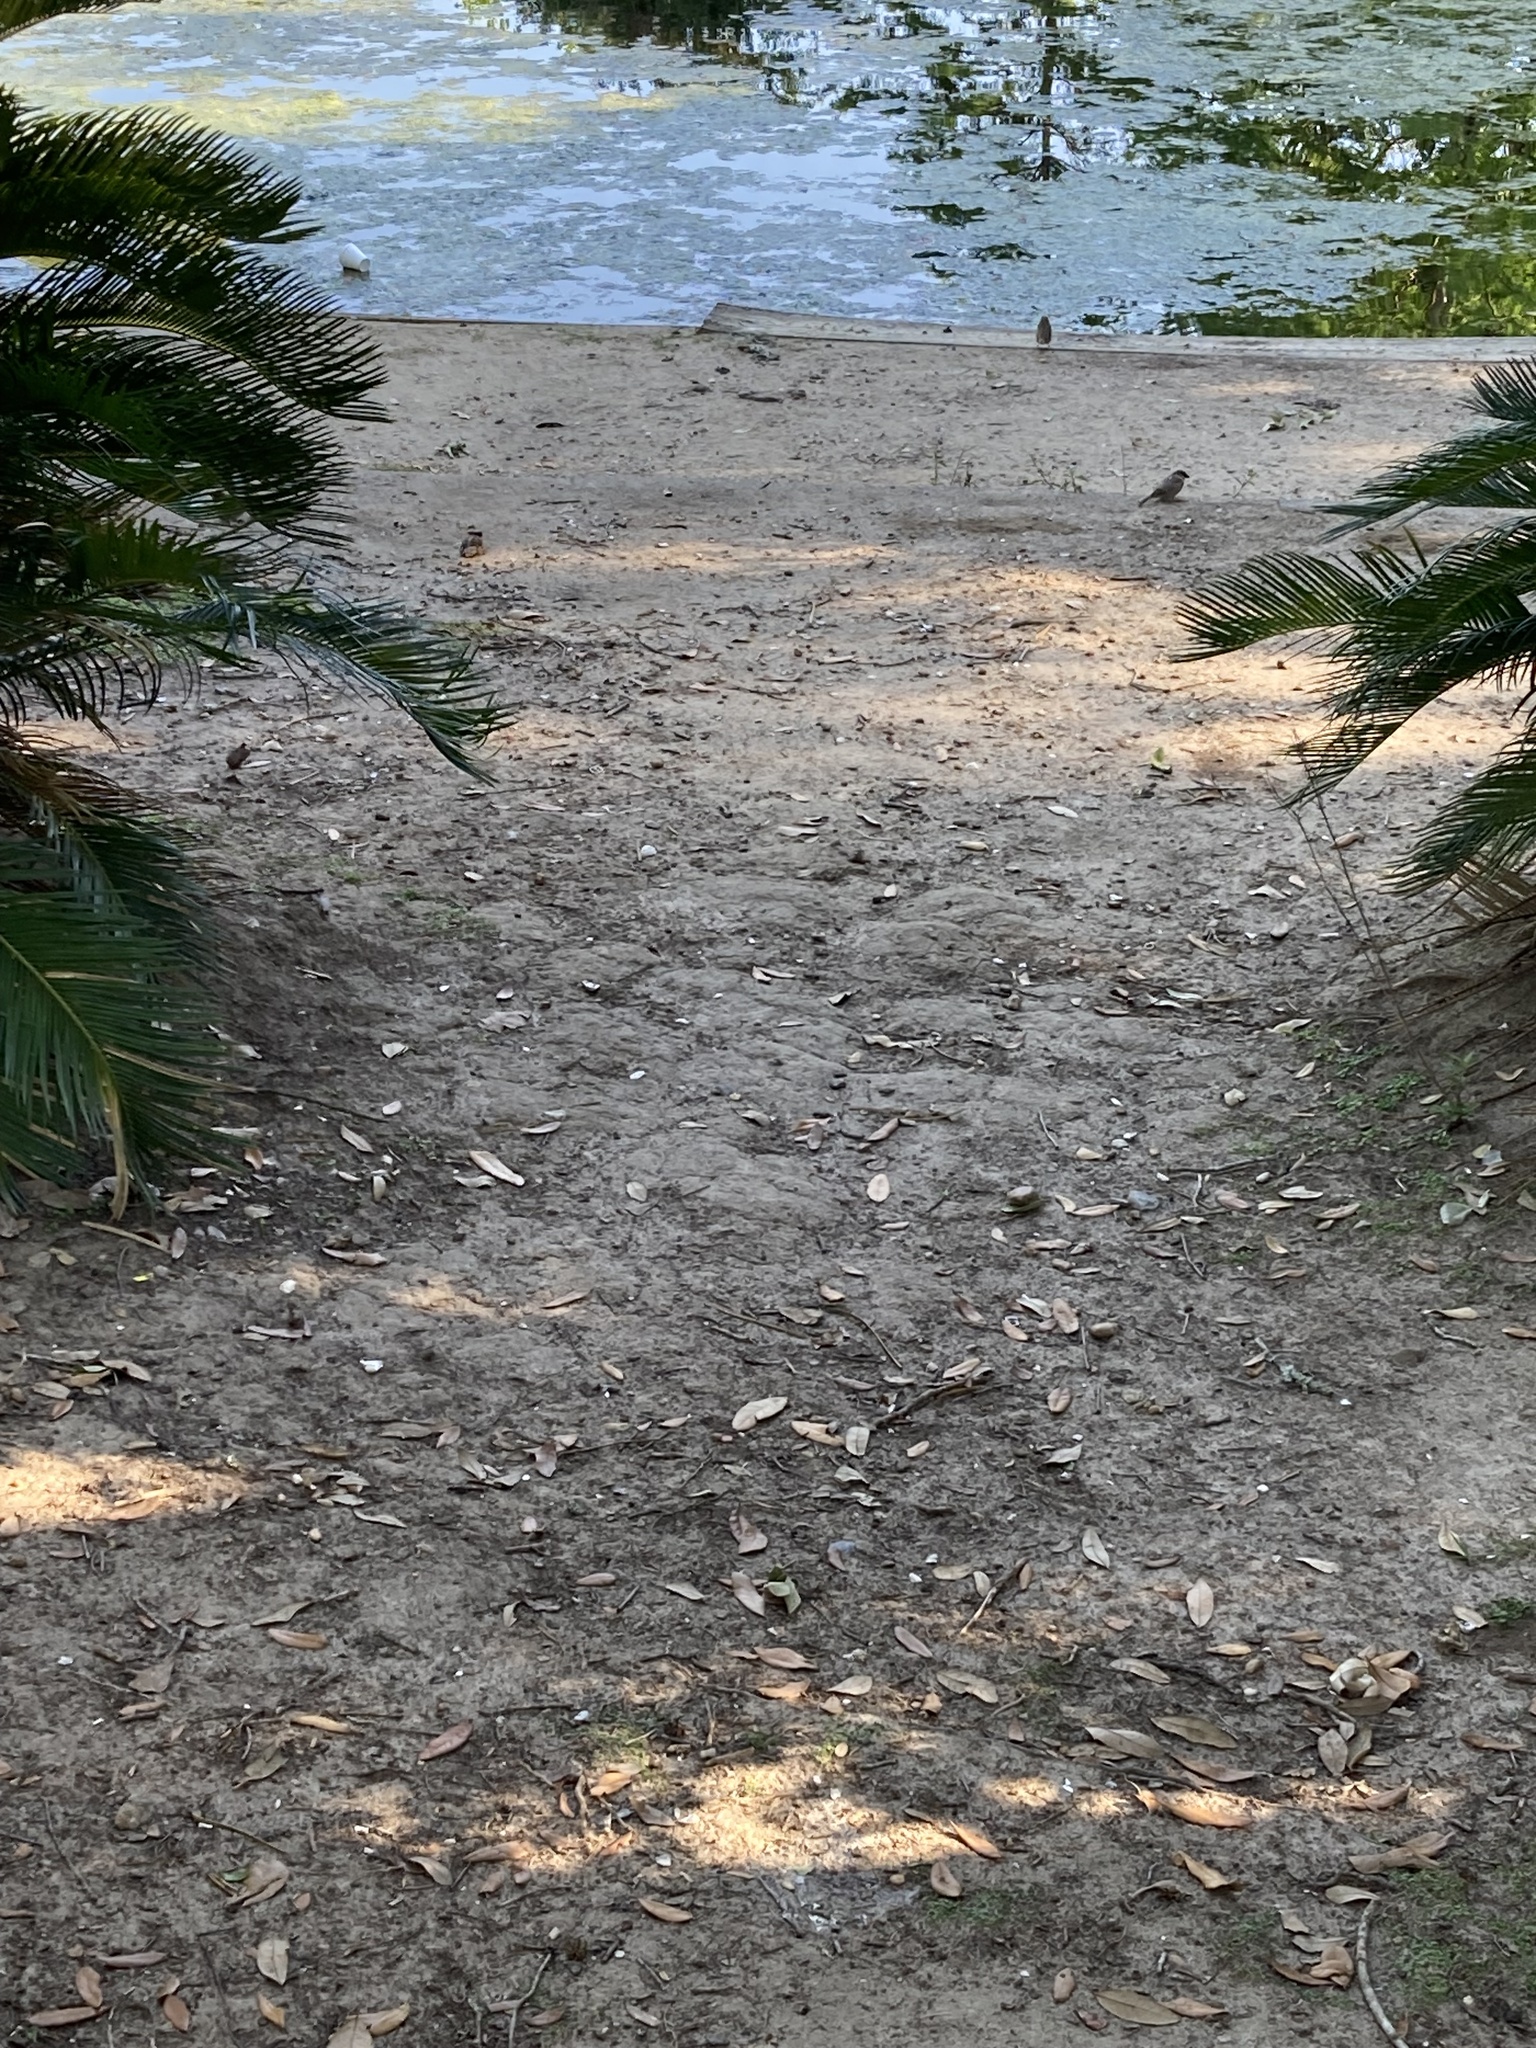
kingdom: Animalia
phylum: Chordata
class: Aves
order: Passeriformes
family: Passeridae
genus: Passer
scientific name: Passer domesticus
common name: House sparrow
